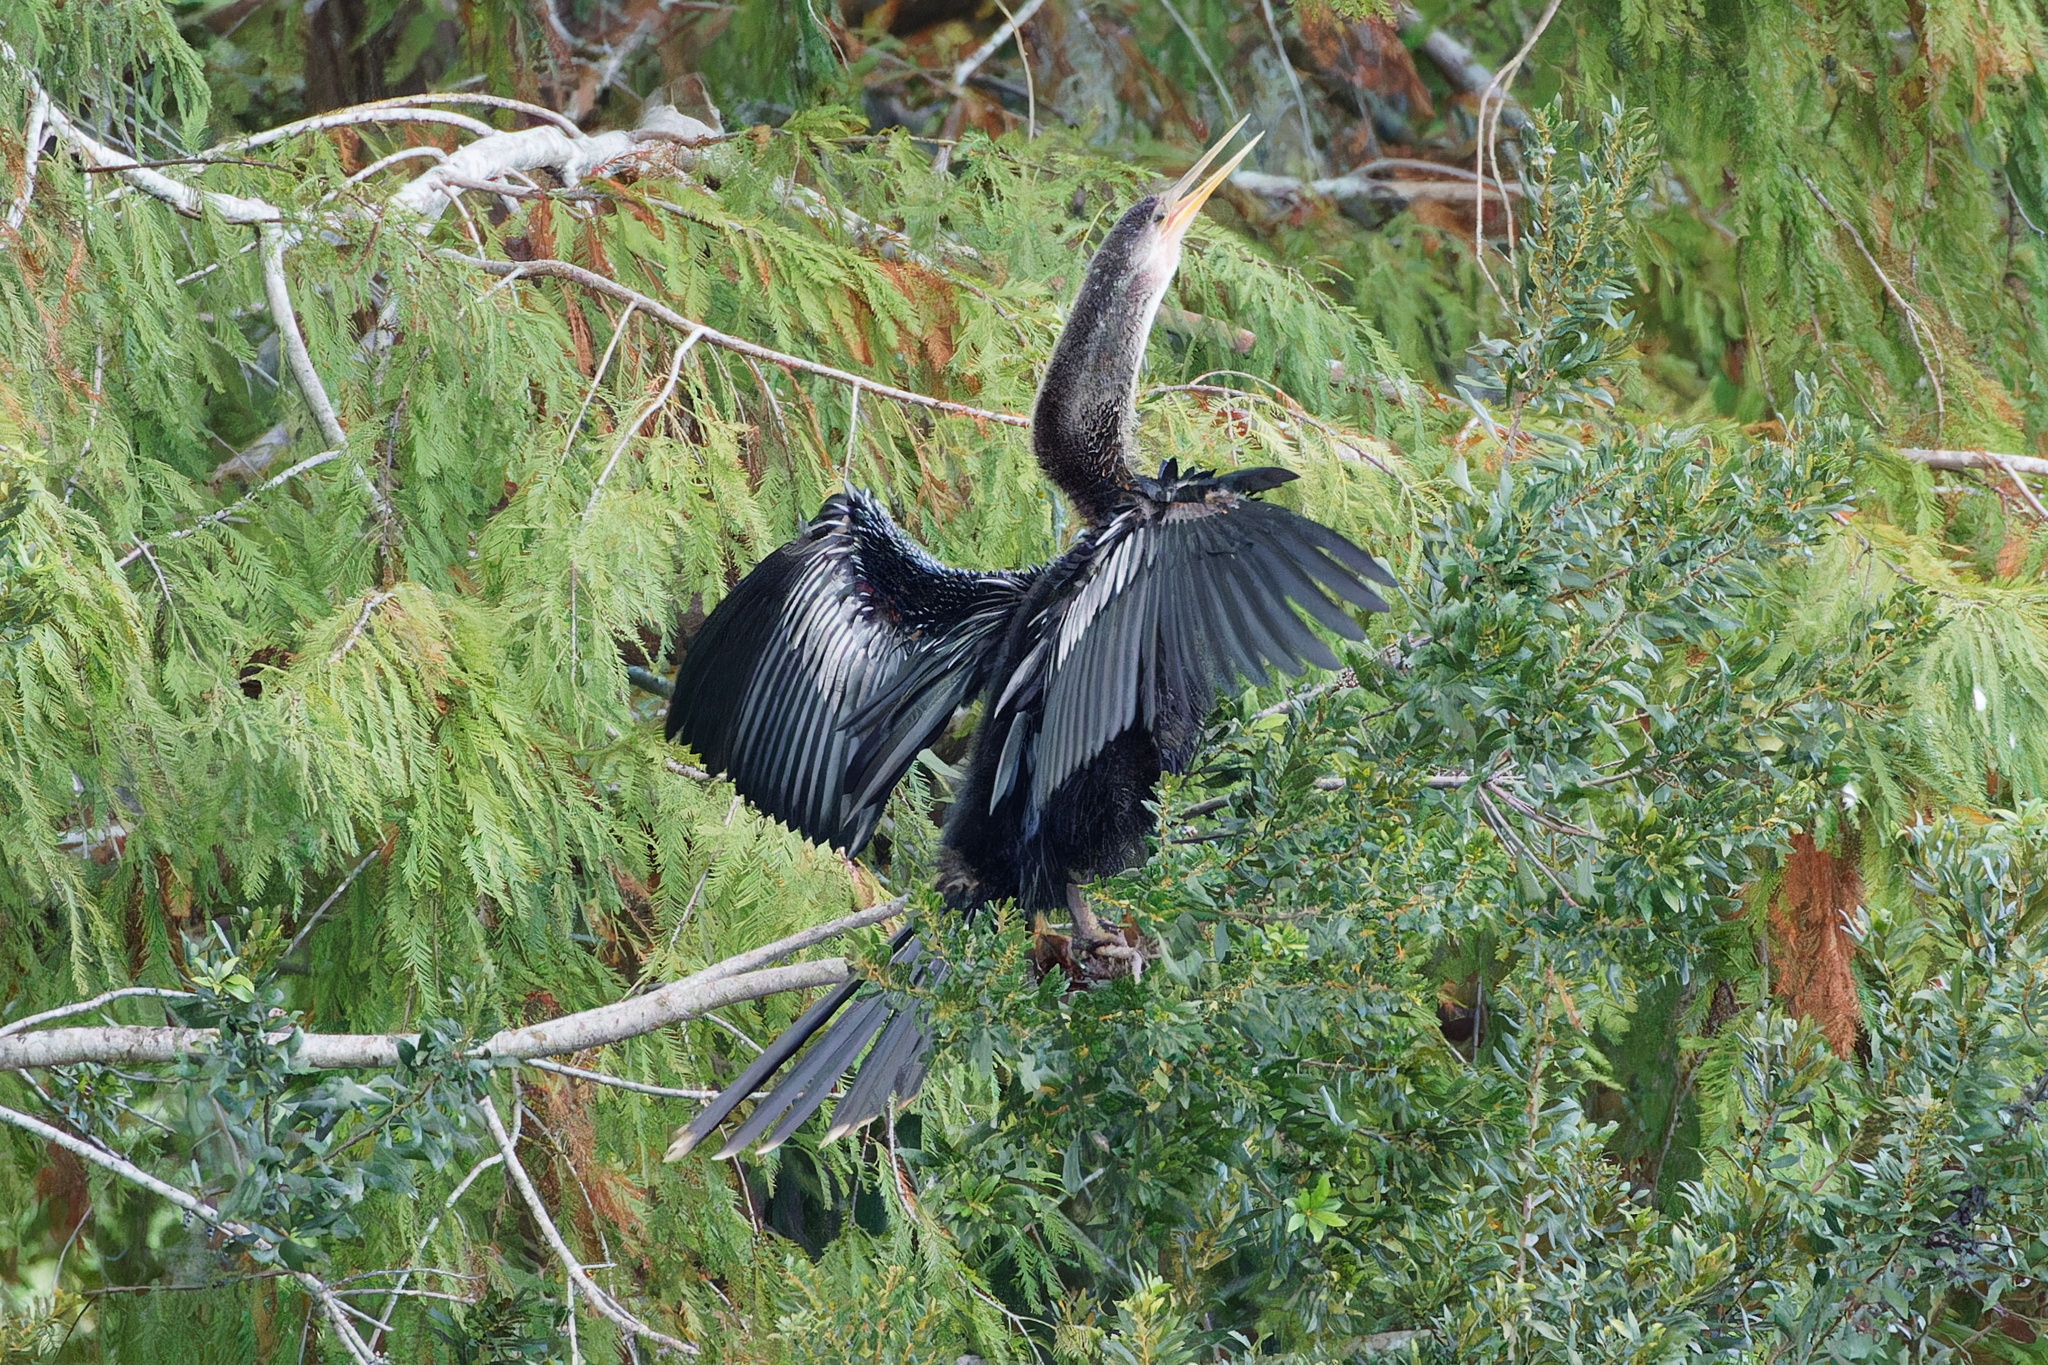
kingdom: Animalia
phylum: Chordata
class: Aves
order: Suliformes
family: Anhingidae
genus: Anhinga
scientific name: Anhinga anhinga
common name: Anhinga
